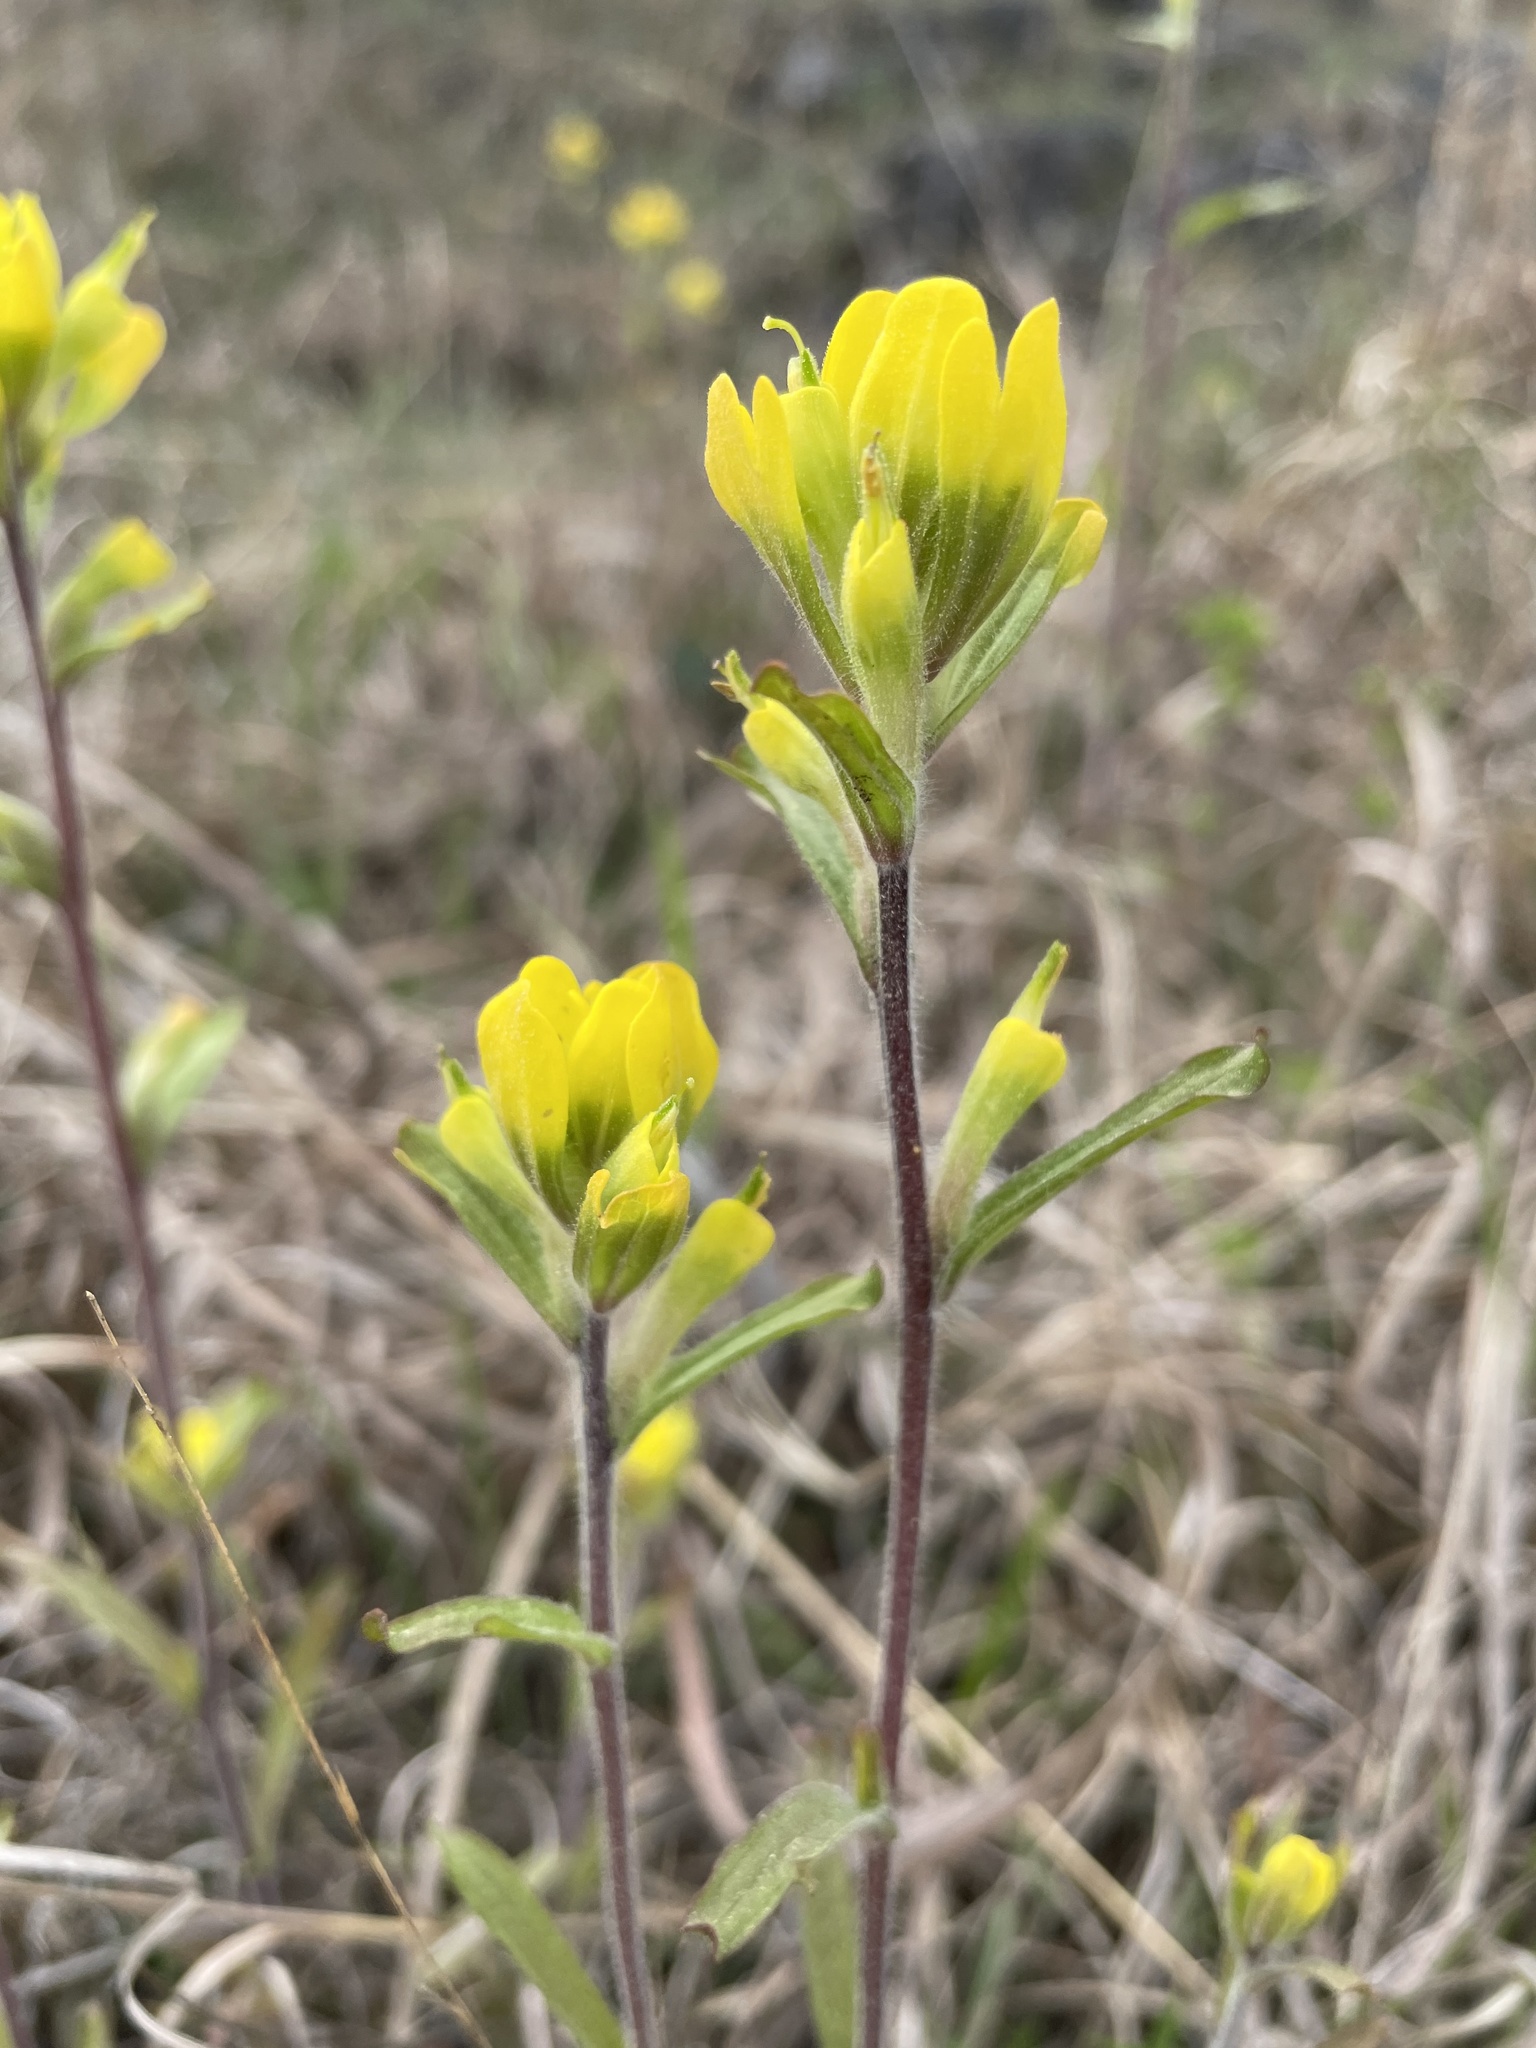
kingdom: Plantae
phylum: Tracheophyta
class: Magnoliopsida
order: Lamiales
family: Orobanchaceae
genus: Castilleja
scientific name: Castilleja kraliana
